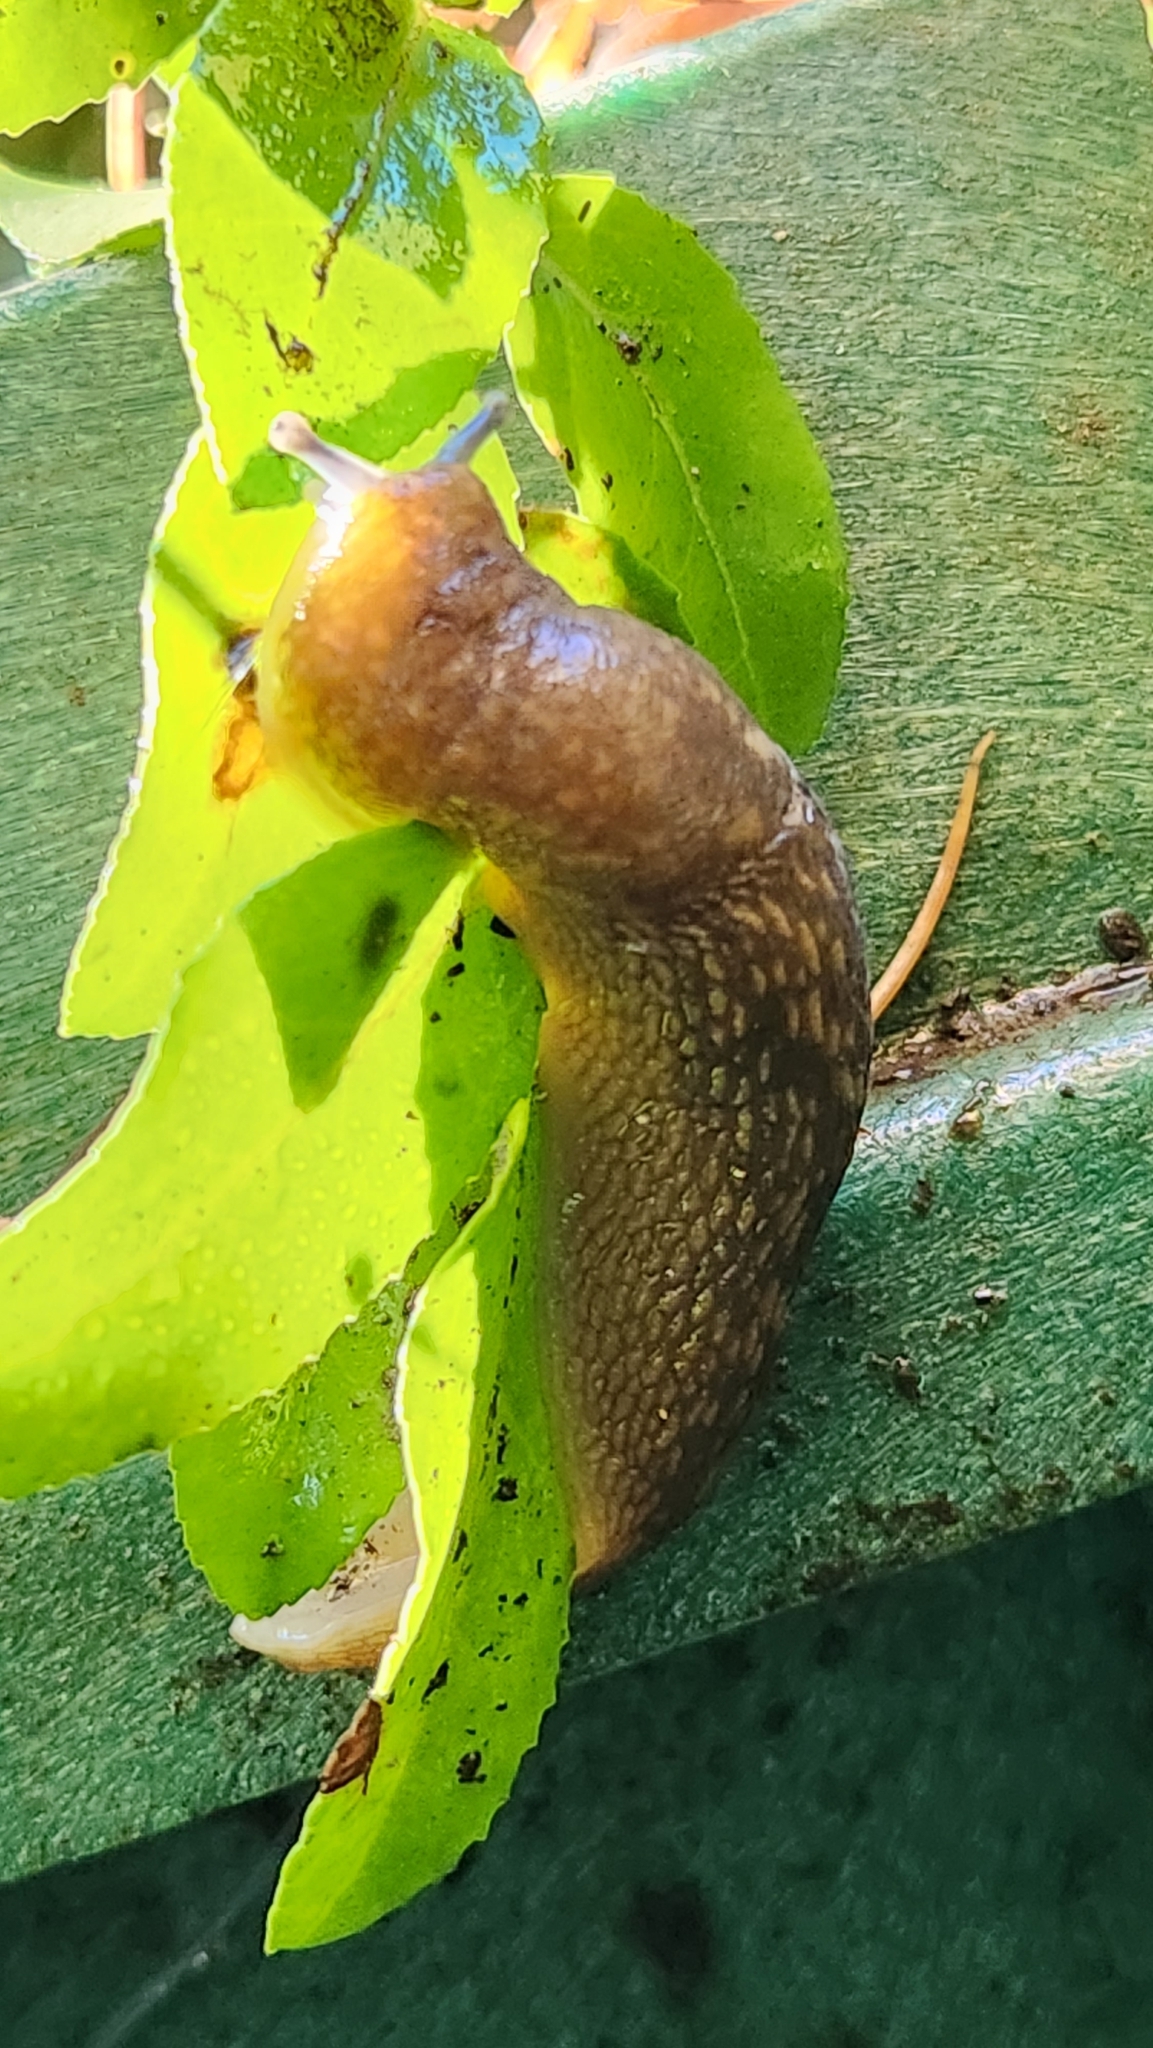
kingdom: Animalia
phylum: Mollusca
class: Gastropoda
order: Stylommatophora
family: Limacidae
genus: Limacus
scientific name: Limacus flavus
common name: Yellow gardenslug
